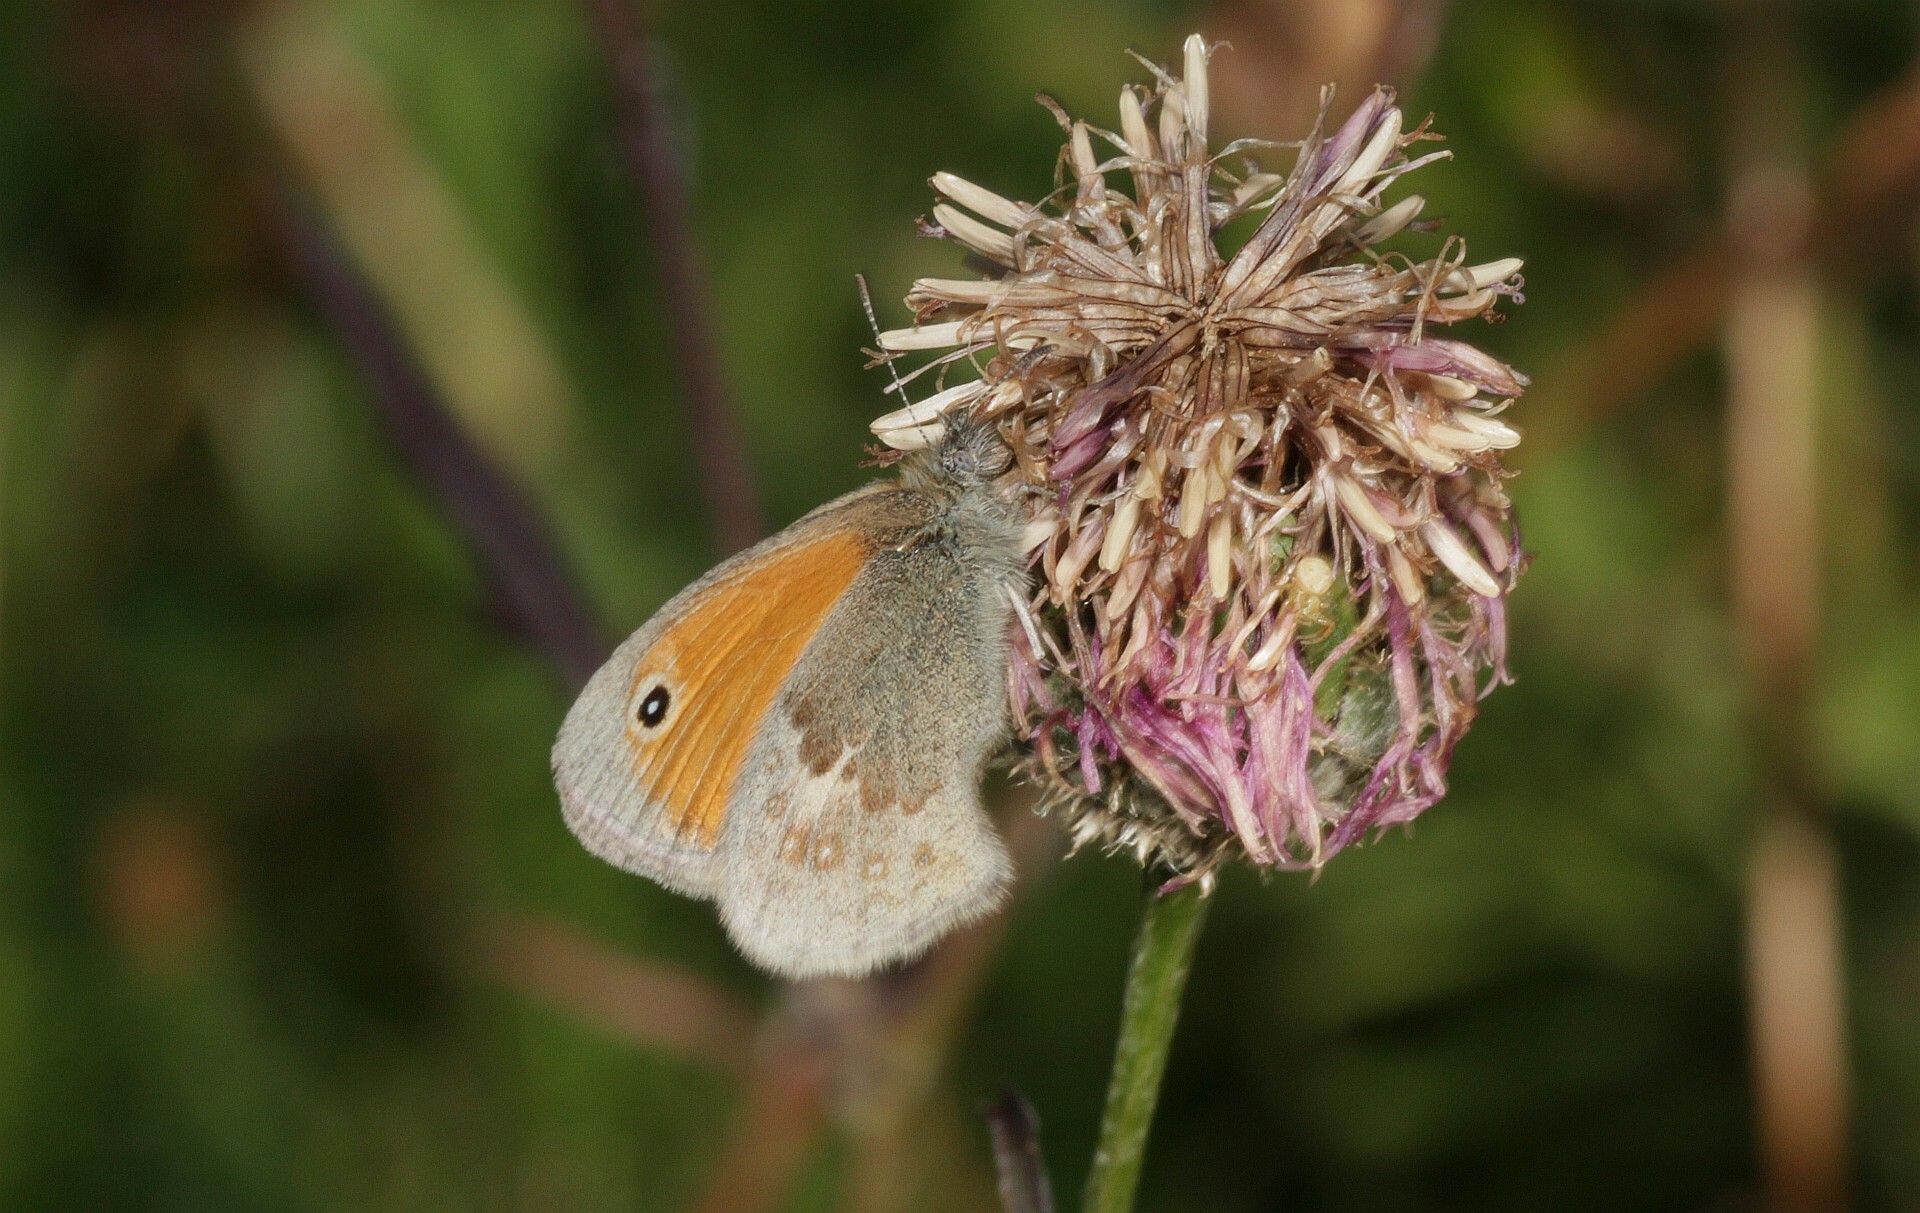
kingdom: Animalia
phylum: Arthropoda
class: Insecta
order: Lepidoptera
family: Nymphalidae
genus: Coenonympha
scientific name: Coenonympha pamphilus
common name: Small heath
